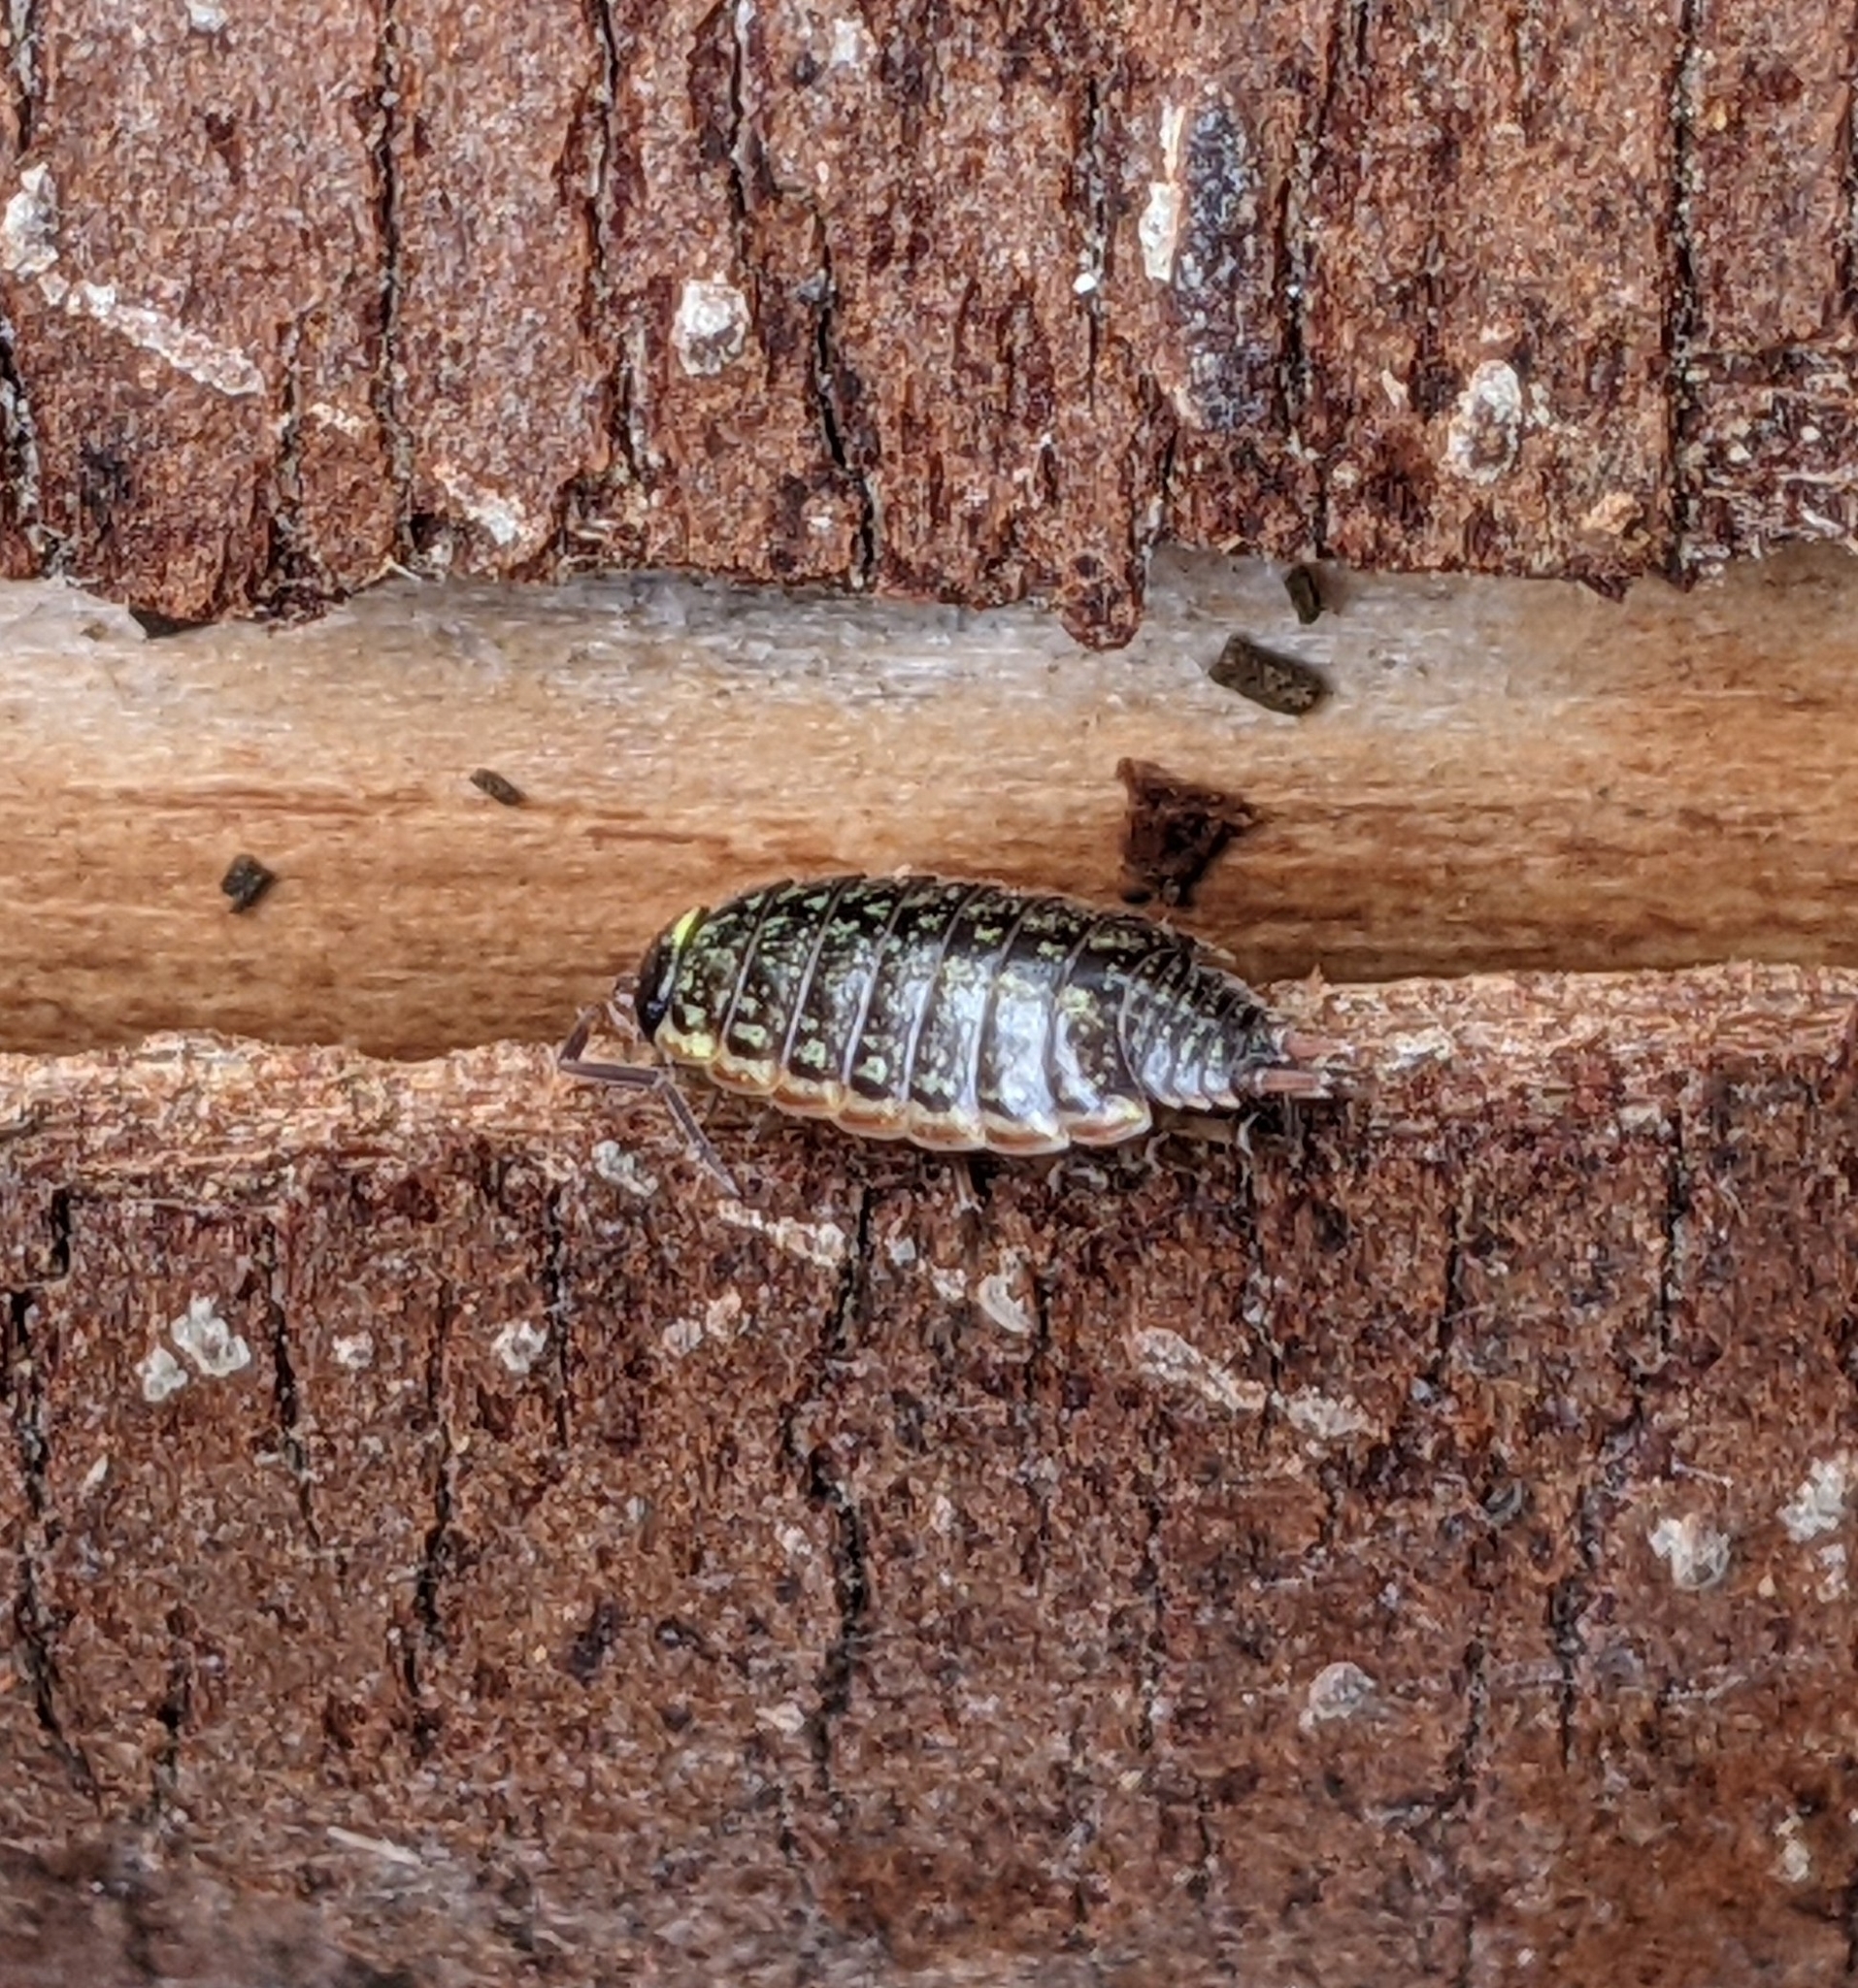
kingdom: Animalia
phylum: Arthropoda
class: Malacostraca
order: Isopoda
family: Philosciidae
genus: Philoscia
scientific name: Philoscia muscorum
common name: Common striped woodlouse
